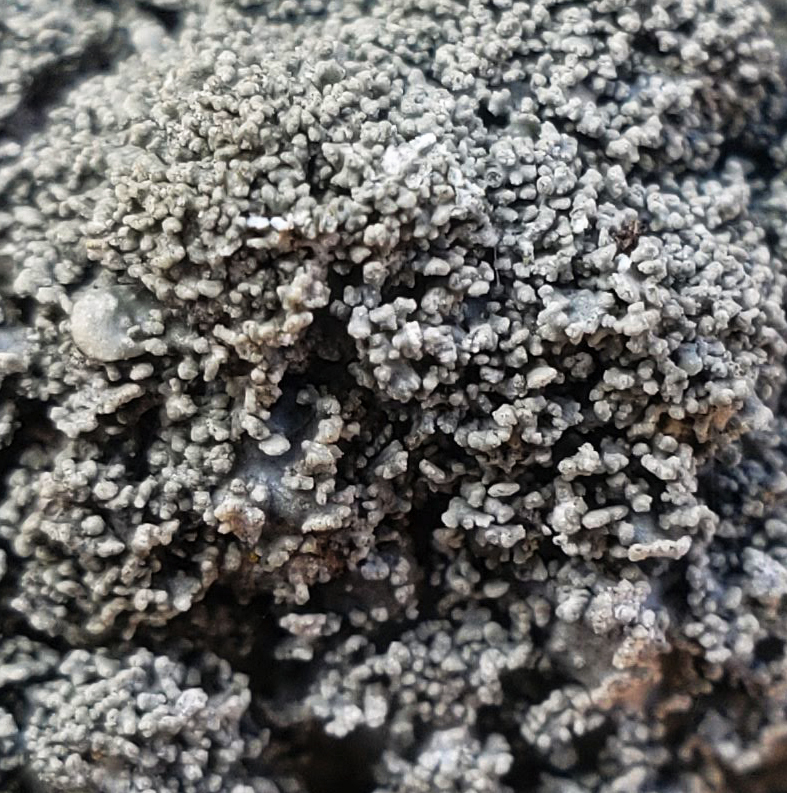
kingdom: Fungi
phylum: Ascomycota
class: Lecanoromycetes
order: Lecanorales
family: Parmeliaceae
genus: Punctelia
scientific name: Punctelia missouriensis
